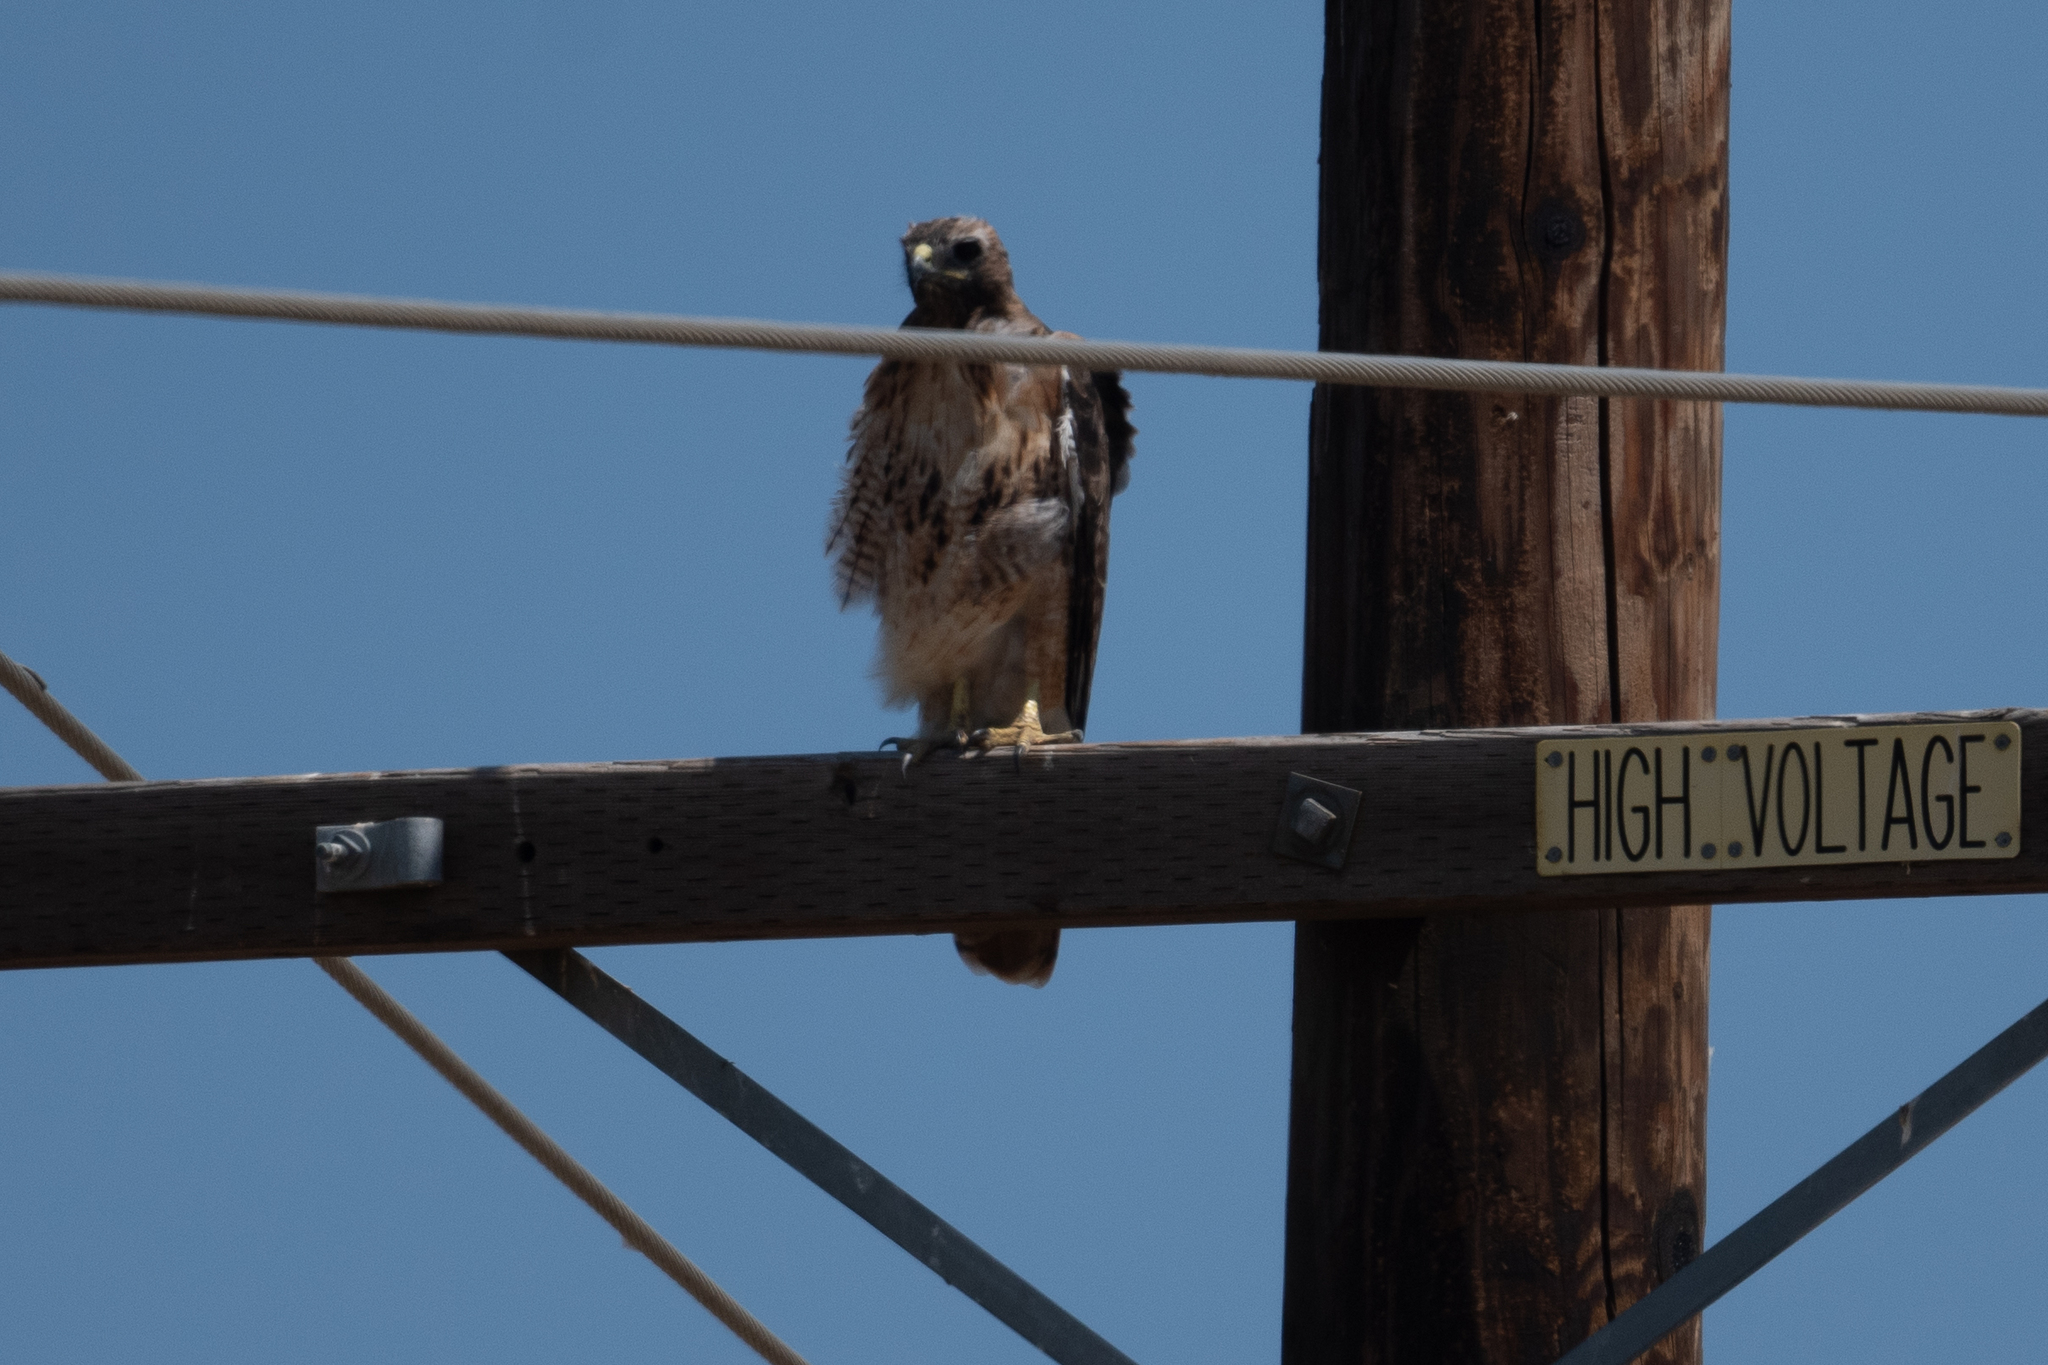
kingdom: Animalia
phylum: Chordata
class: Aves
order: Accipitriformes
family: Accipitridae
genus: Buteo
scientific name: Buteo jamaicensis
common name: Red-tailed hawk
